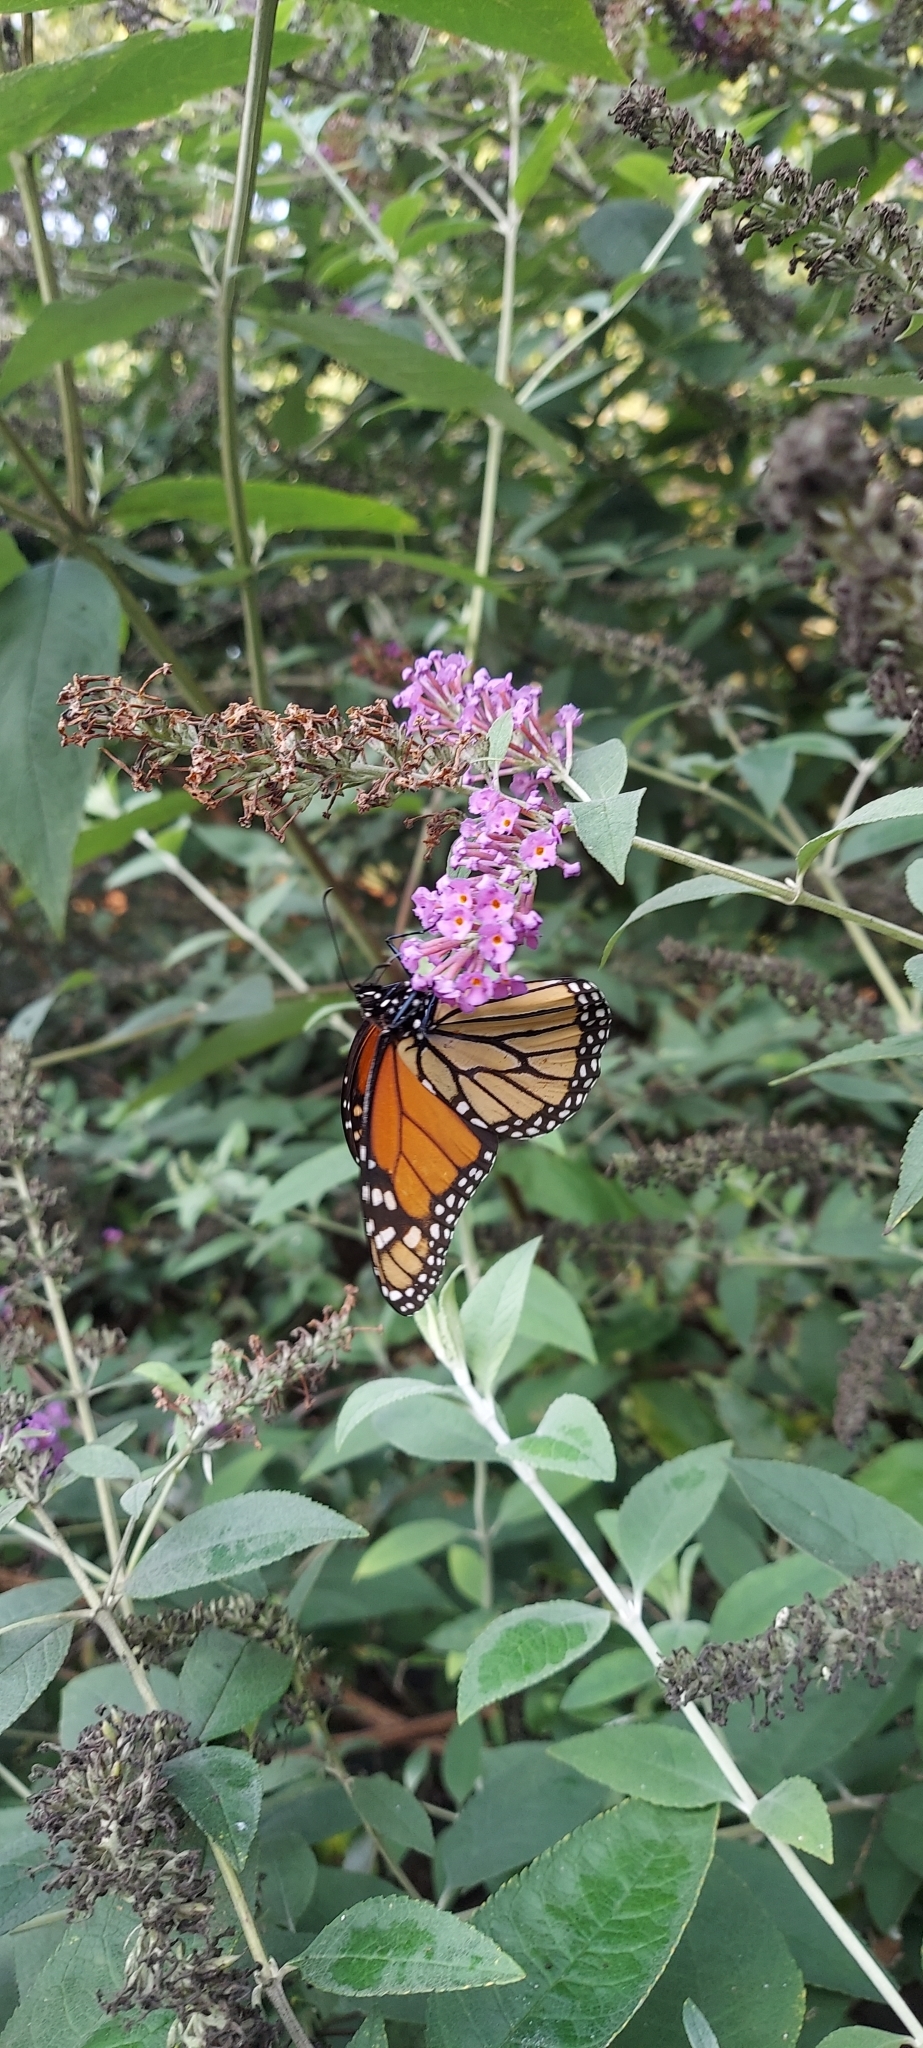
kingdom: Animalia
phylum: Arthropoda
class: Insecta
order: Lepidoptera
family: Nymphalidae
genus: Danaus
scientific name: Danaus plexippus
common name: Monarch
